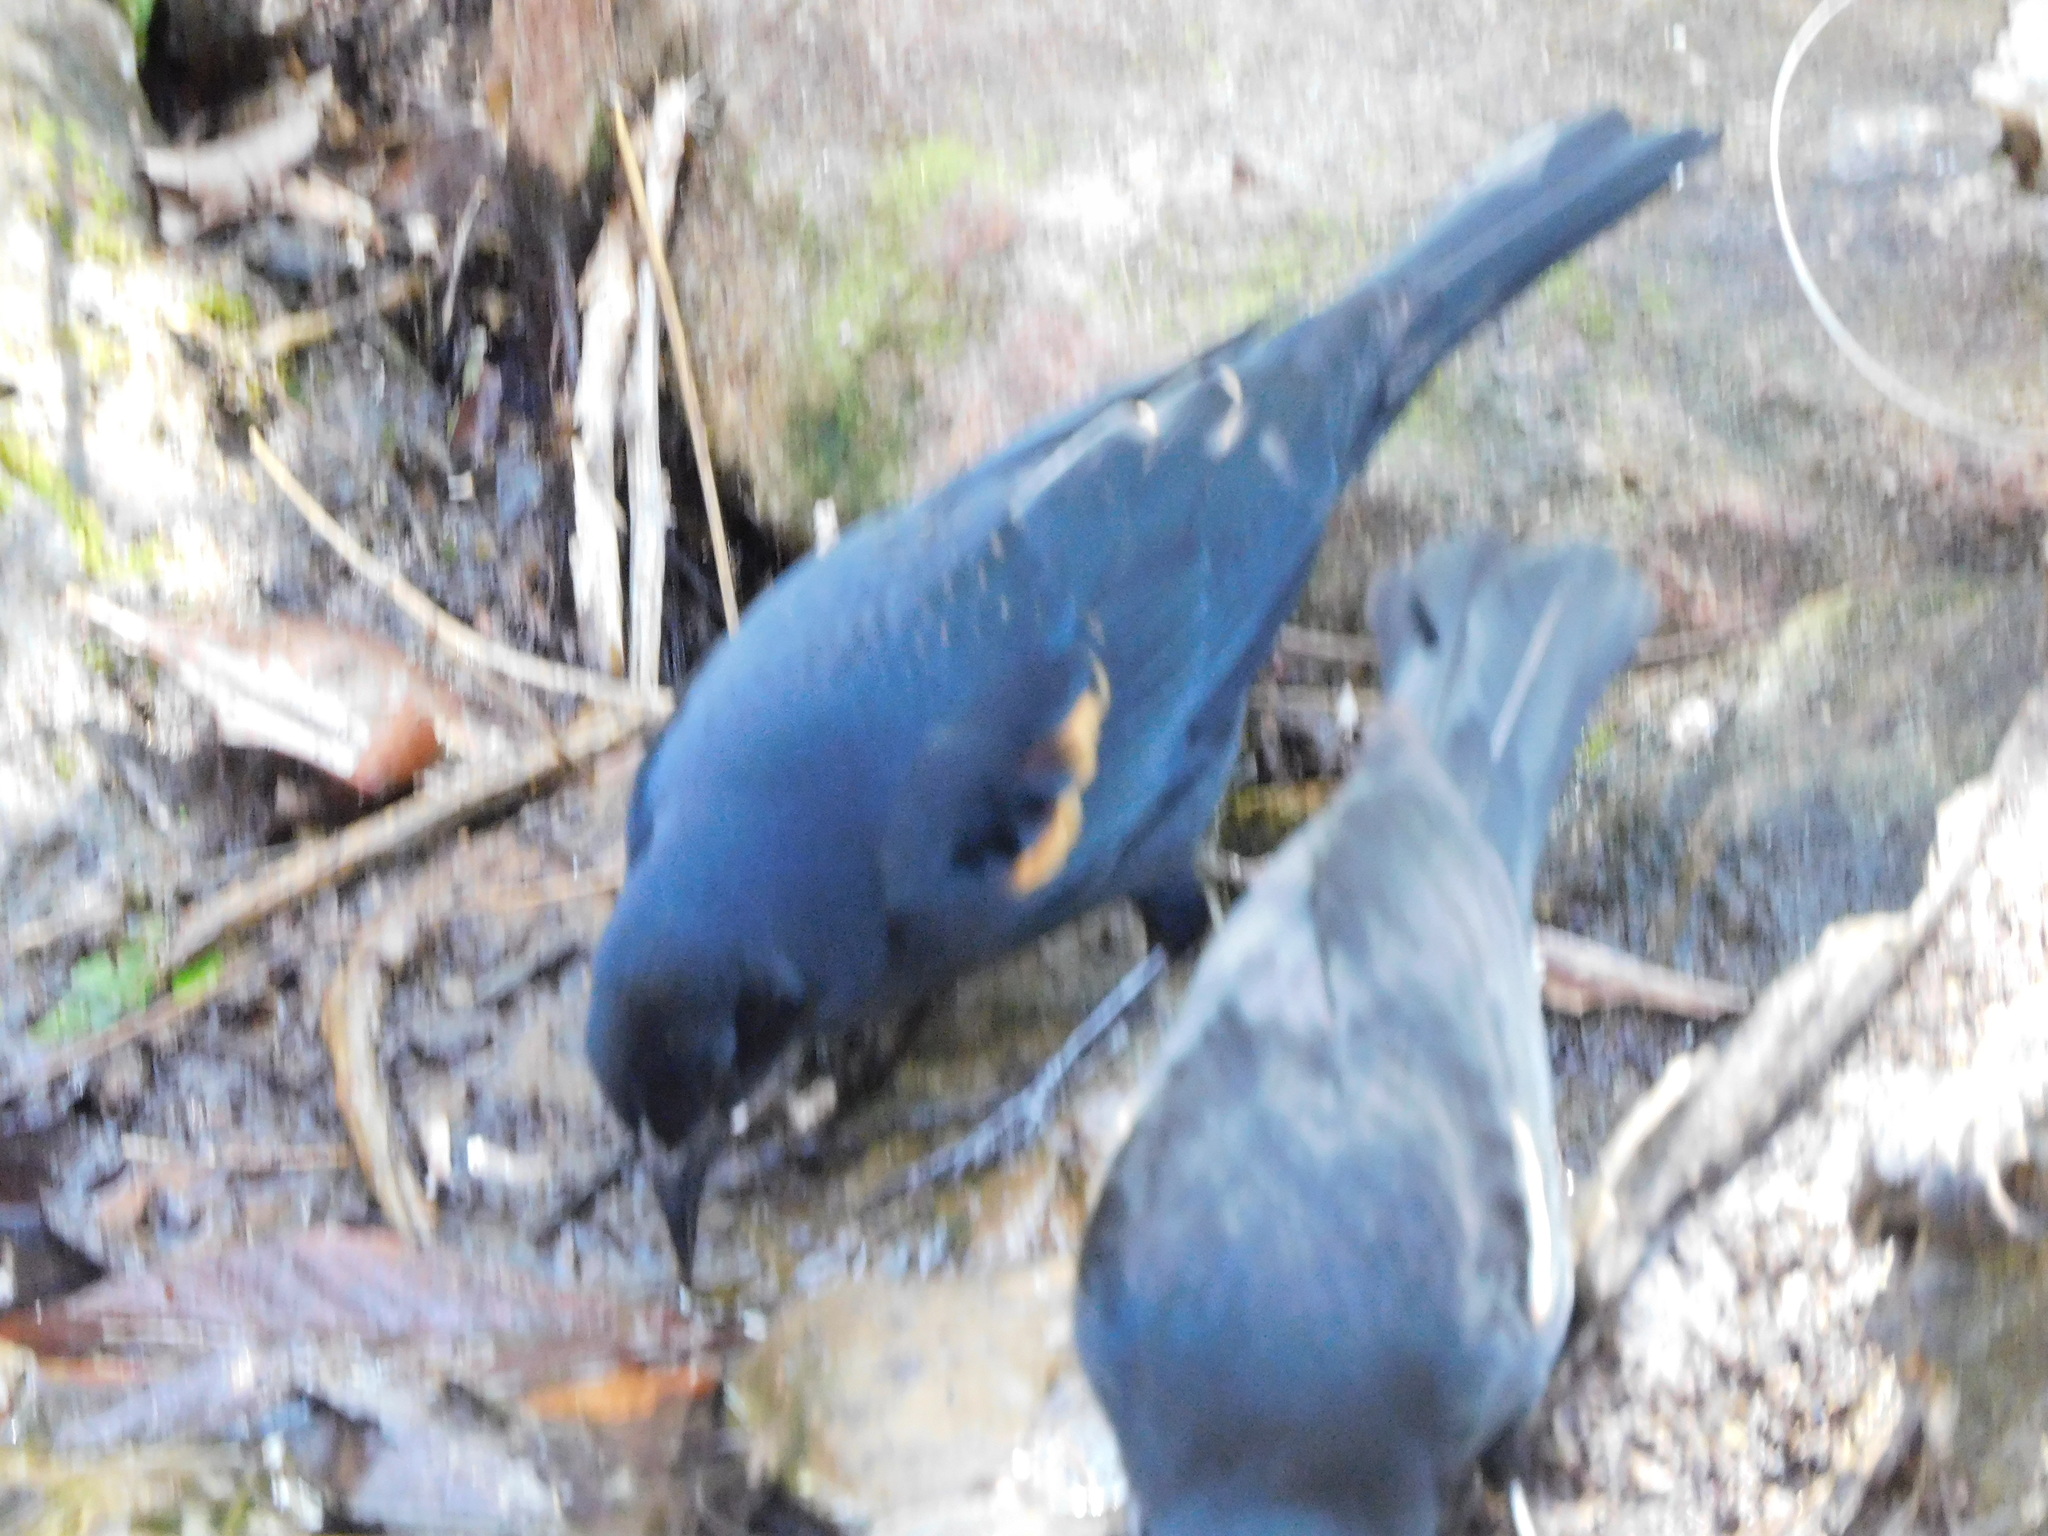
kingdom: Animalia
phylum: Chordata
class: Aves
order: Passeriformes
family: Icteridae
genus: Agelaius
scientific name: Agelaius phoeniceus
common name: Red-winged blackbird
